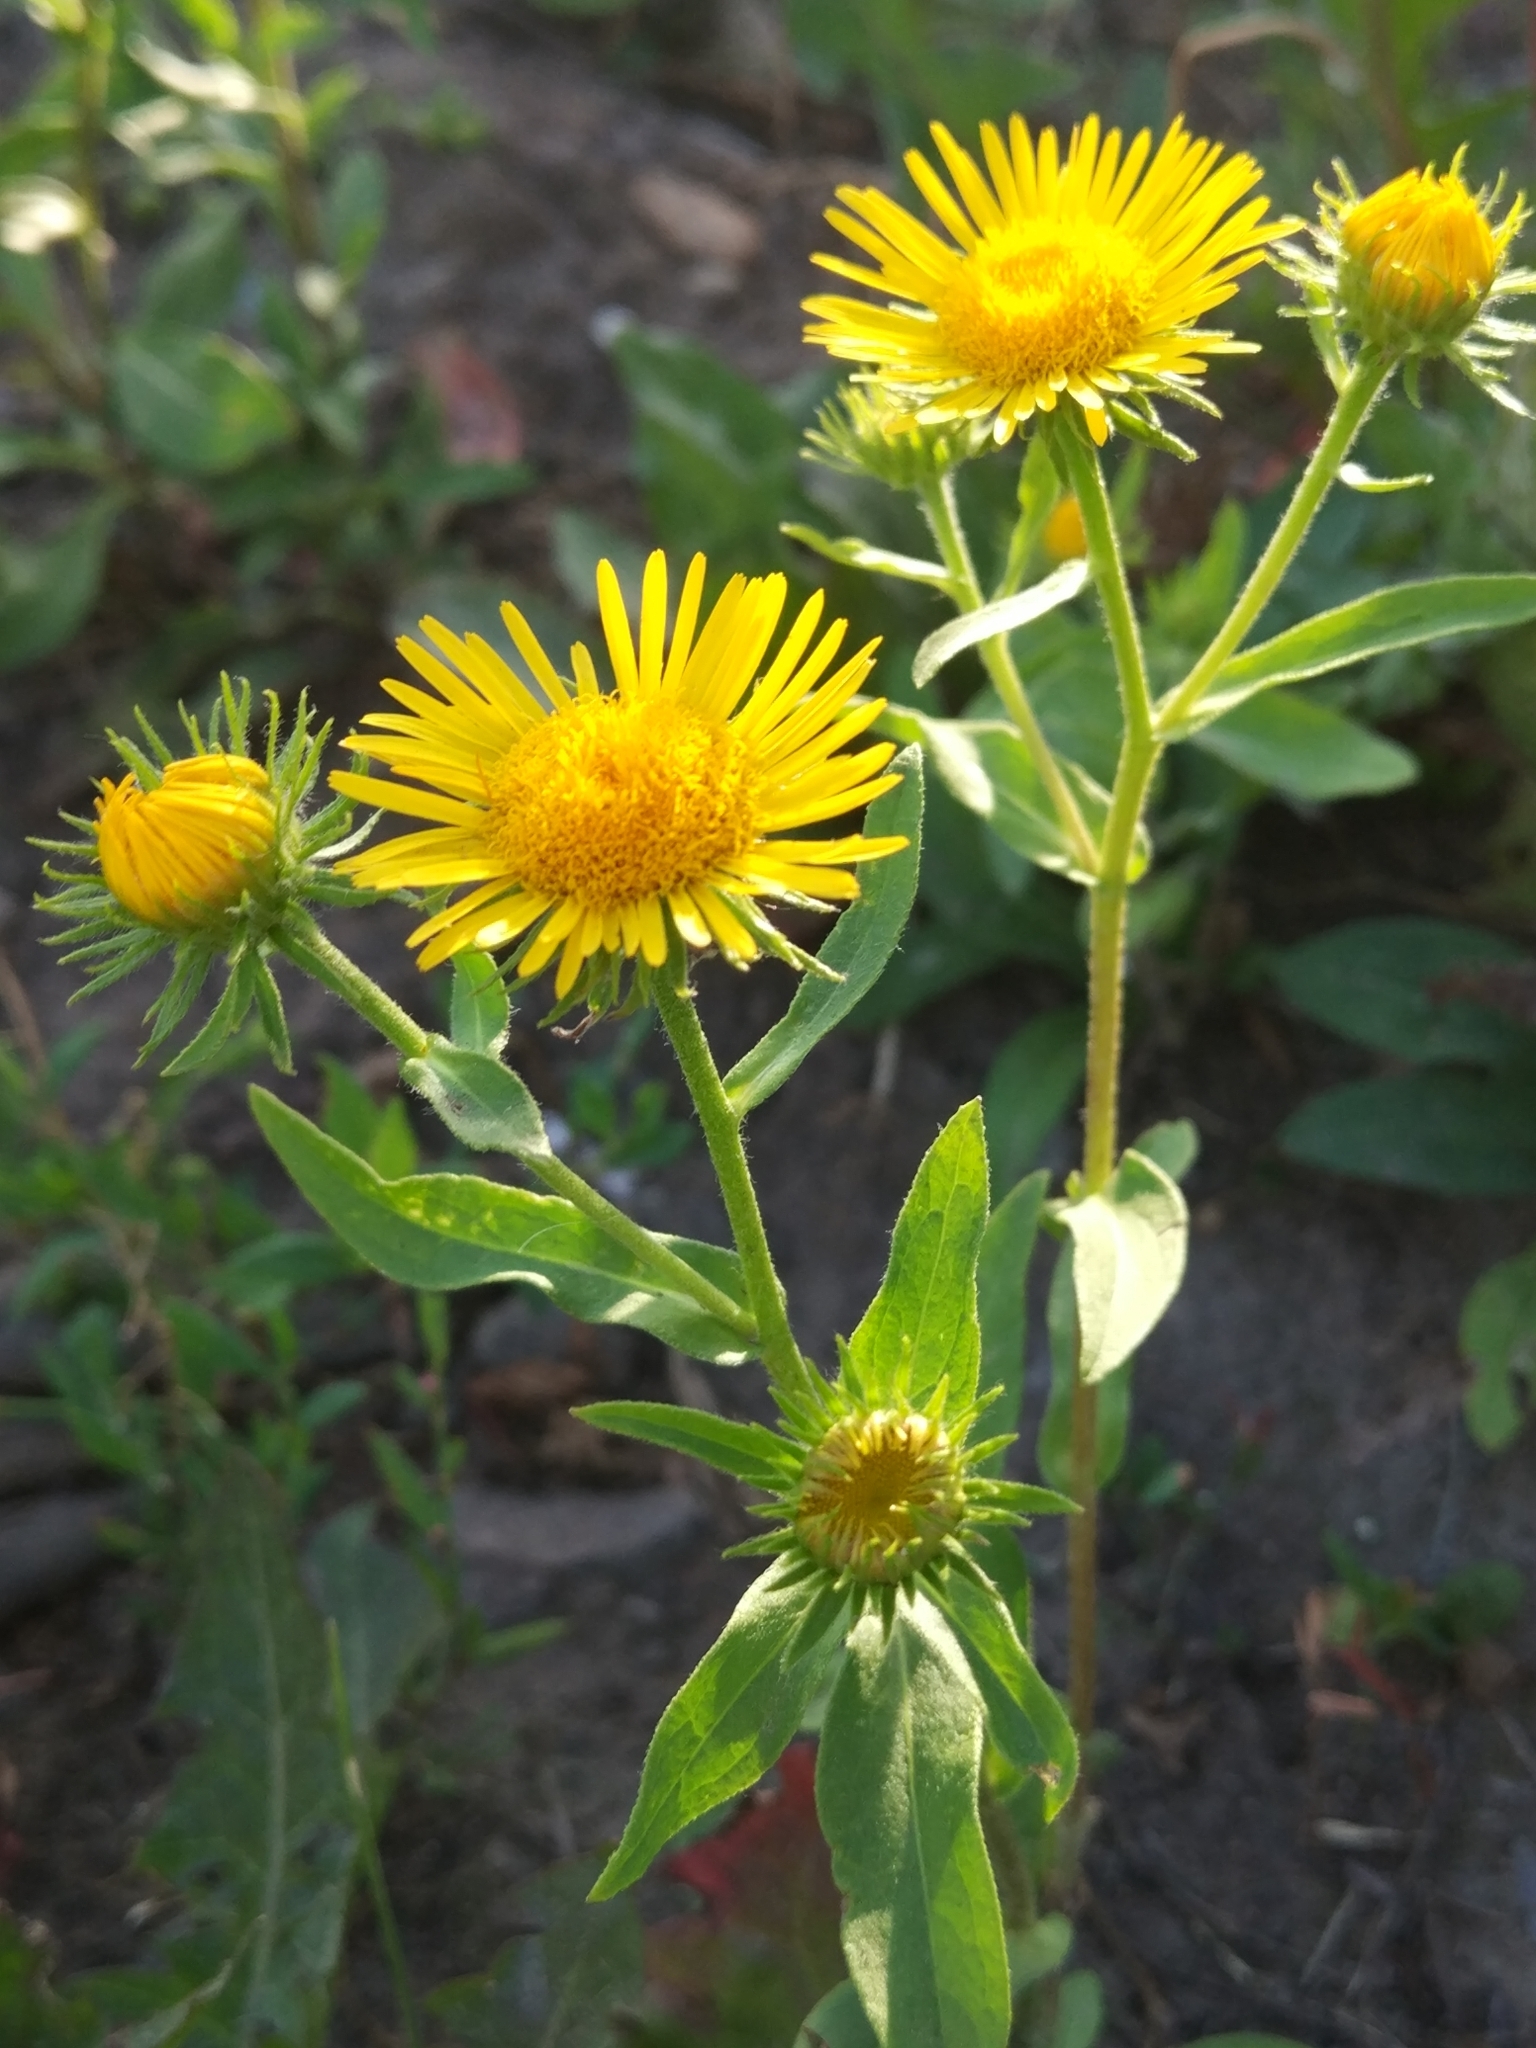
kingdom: Plantae
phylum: Tracheophyta
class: Magnoliopsida
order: Asterales
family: Asteraceae
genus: Pentanema
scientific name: Pentanema britannicum
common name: British elecampane
